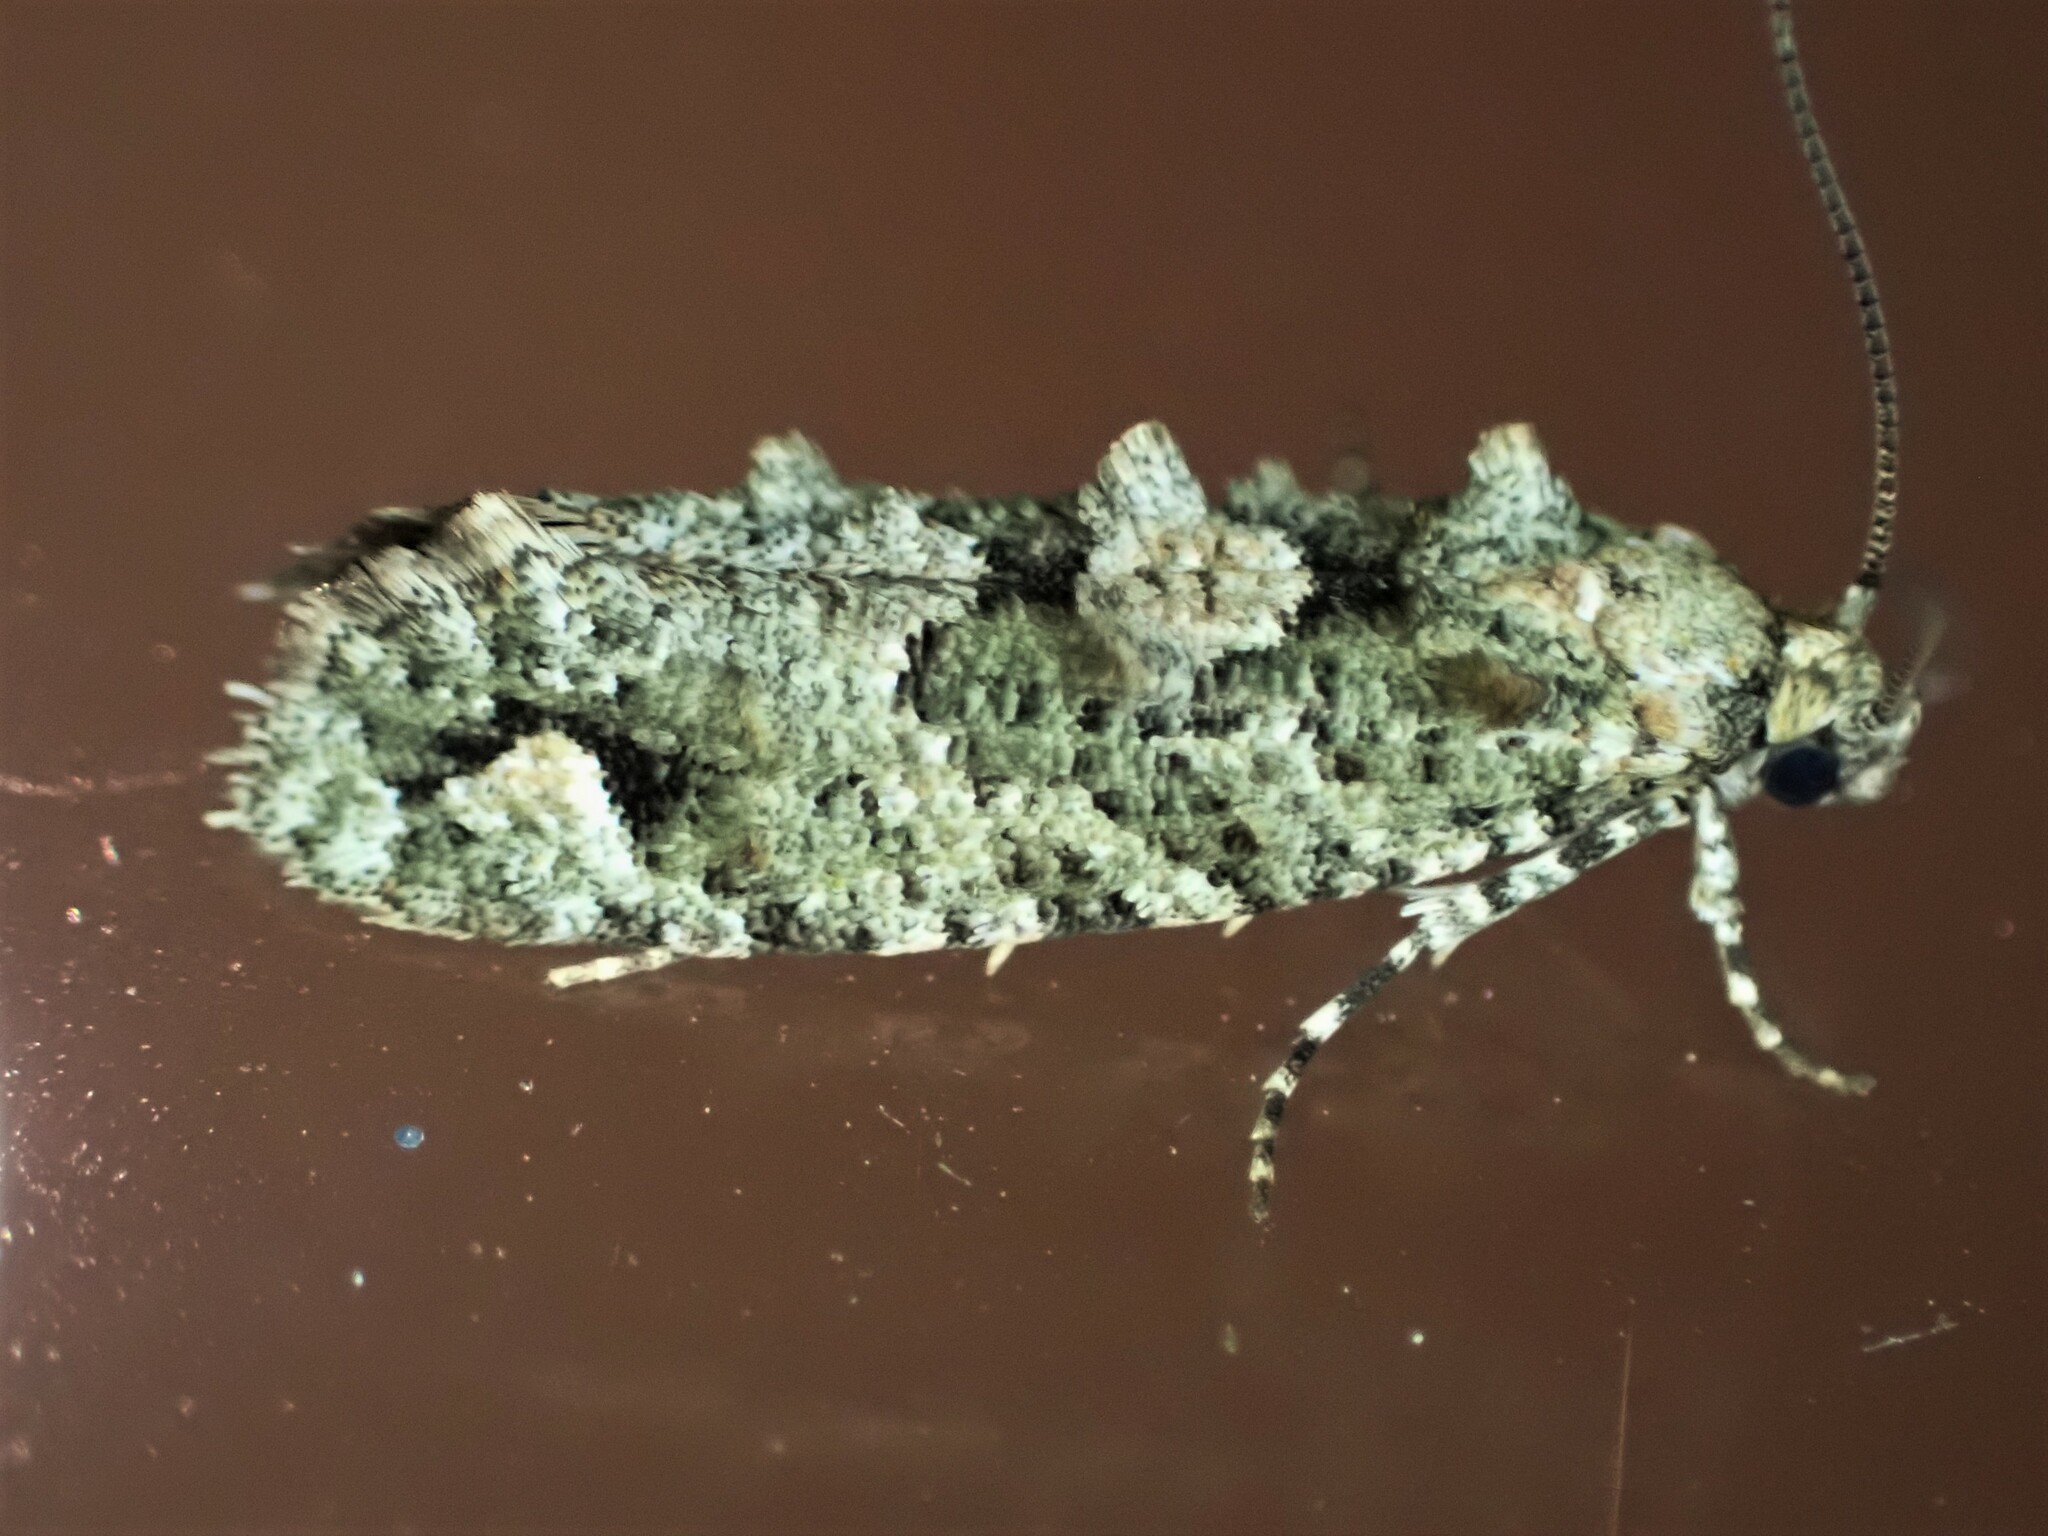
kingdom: Animalia
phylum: Arthropoda
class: Insecta
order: Lepidoptera
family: Tineidae
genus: Lysiphragma
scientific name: Lysiphragma howesii
